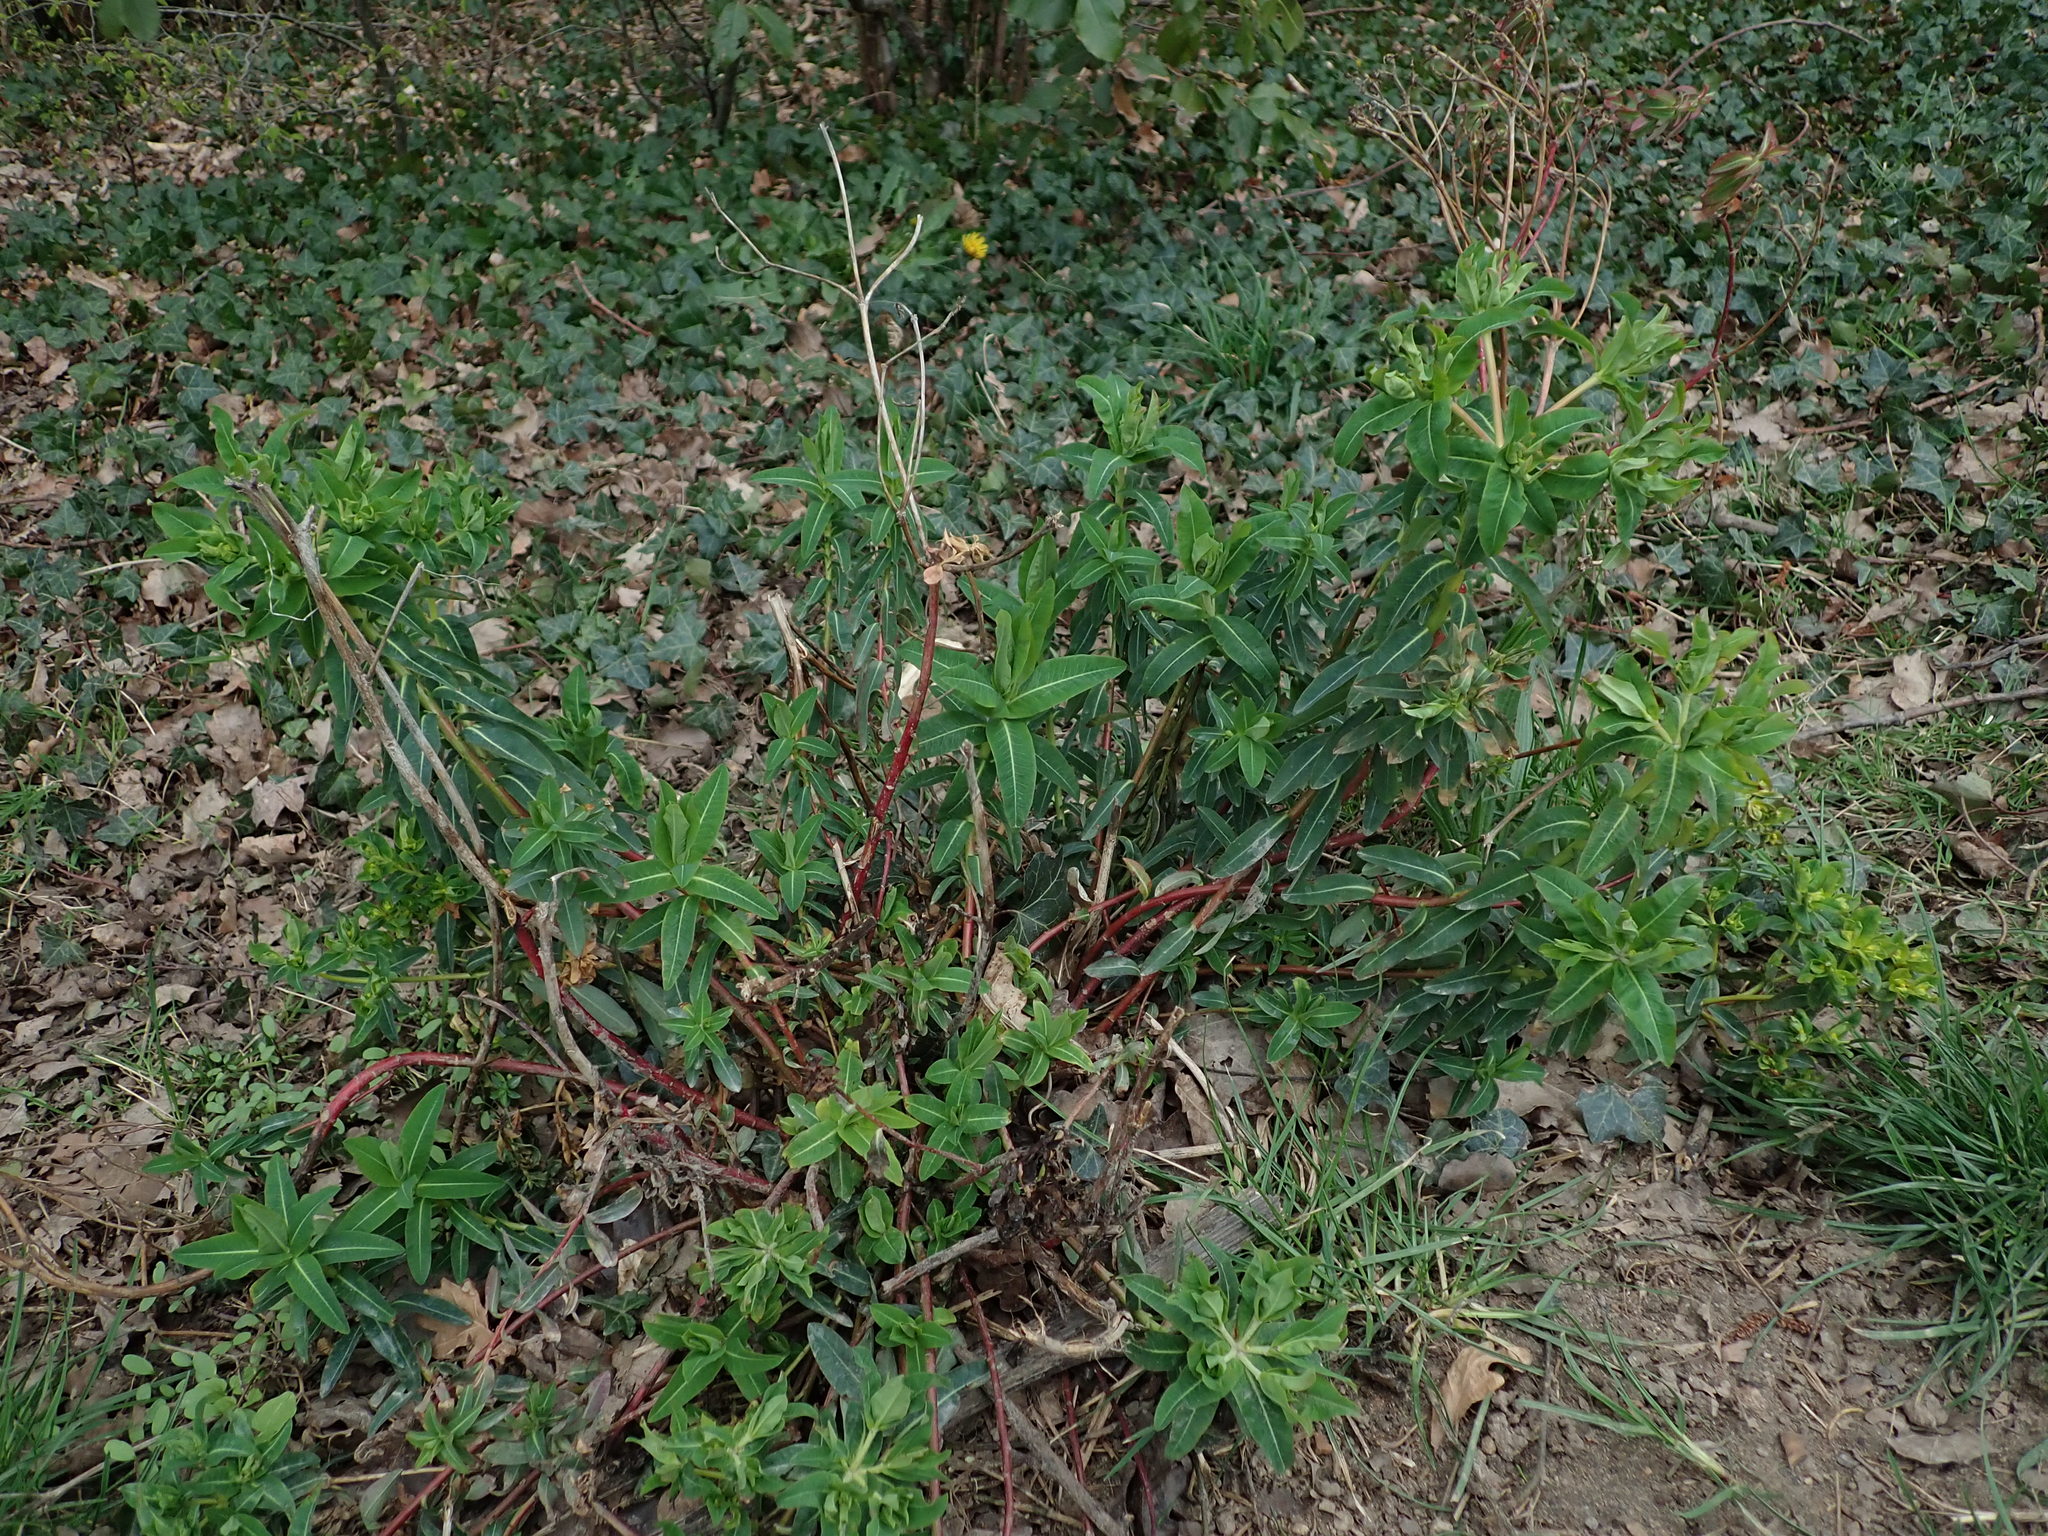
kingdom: Plantae
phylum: Tracheophyta
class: Magnoliopsida
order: Malpighiales
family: Euphorbiaceae
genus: Euphorbia
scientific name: Euphorbia oblongata
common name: Balkan spurge
